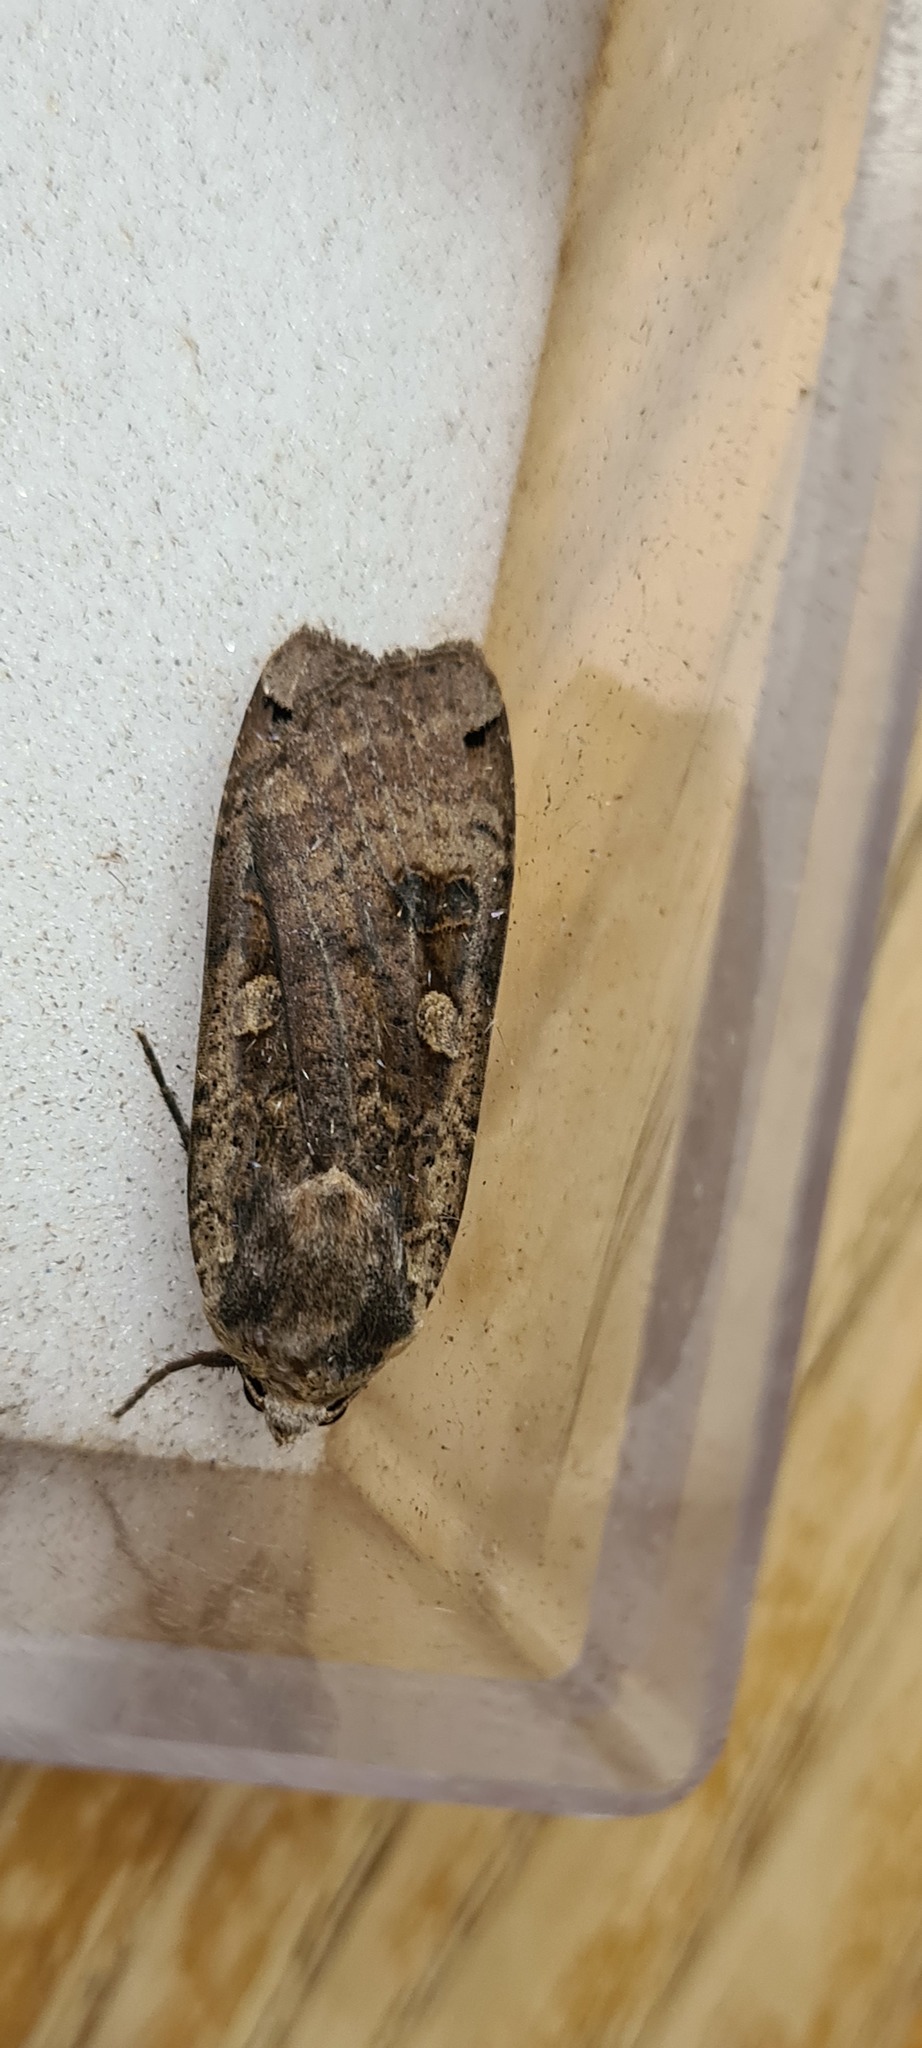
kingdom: Animalia
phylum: Arthropoda
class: Insecta
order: Lepidoptera
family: Noctuidae
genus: Noctua
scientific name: Noctua pronuba
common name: Large yellow underwing
